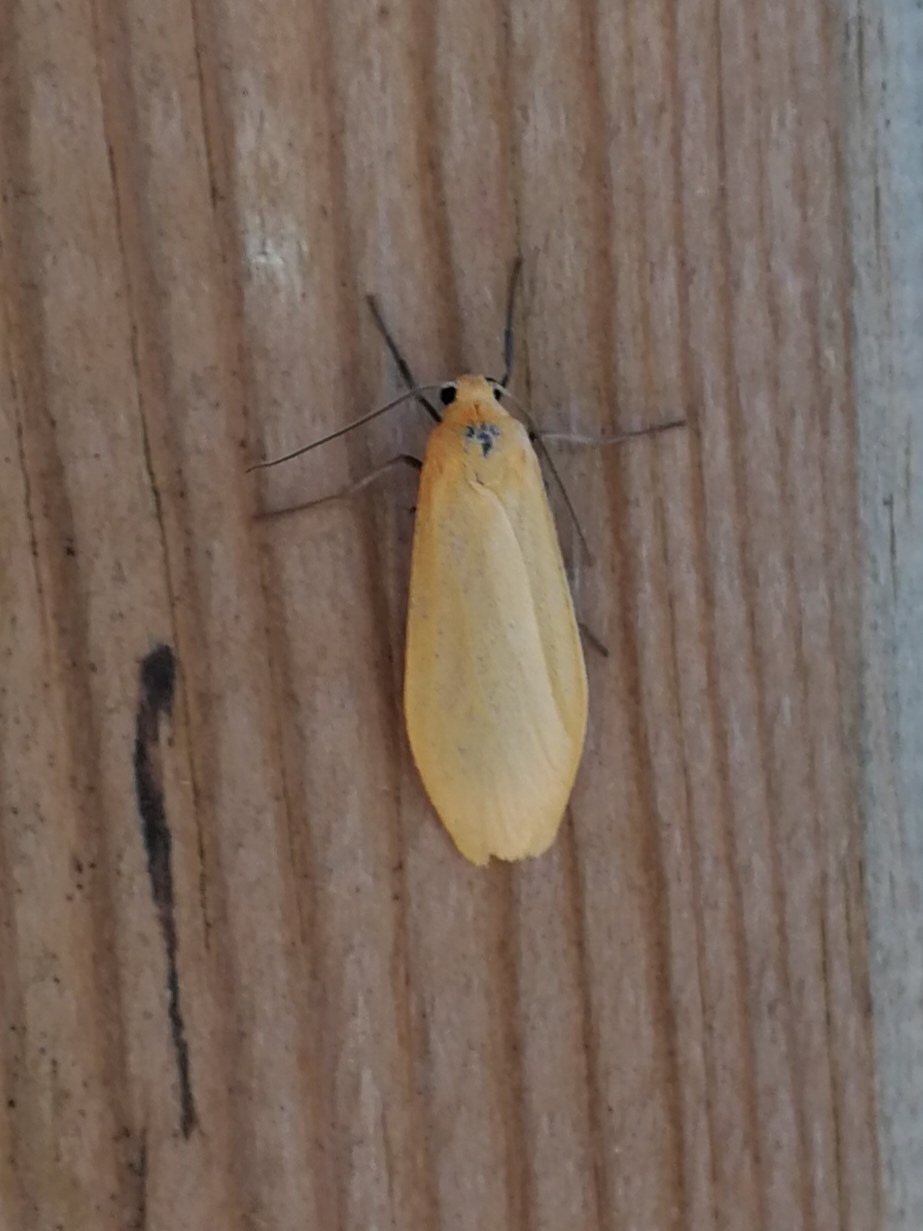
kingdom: Animalia
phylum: Arthropoda
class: Insecta
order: Lepidoptera
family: Erebidae
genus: Wittia
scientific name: Wittia sororcula
